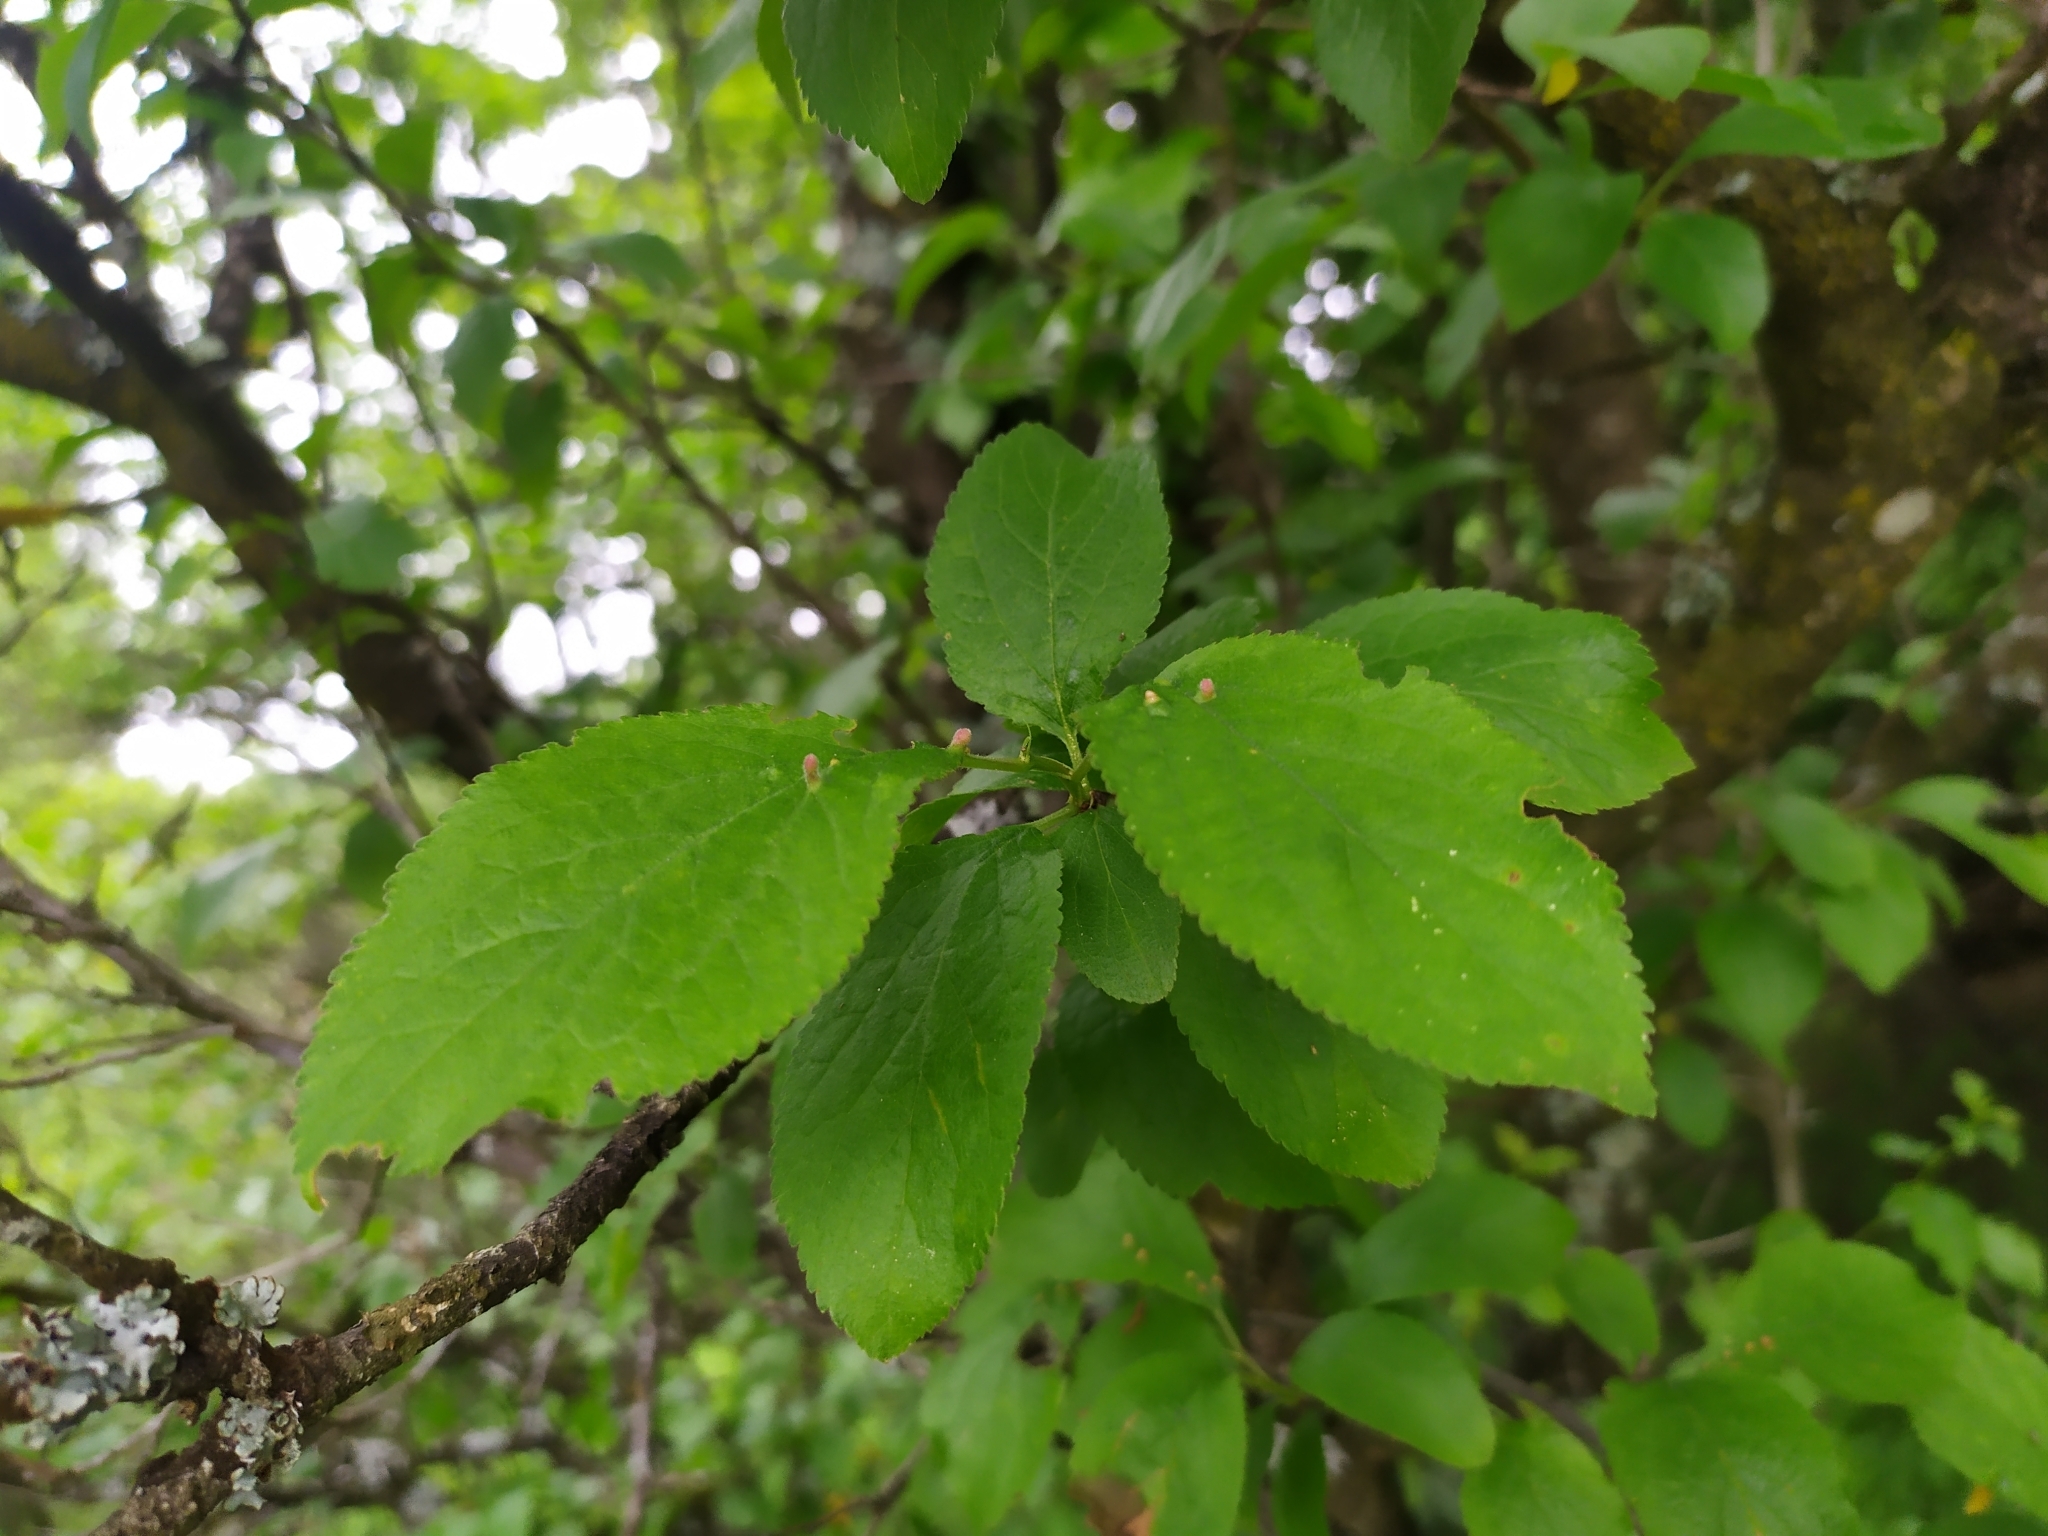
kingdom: Animalia
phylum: Arthropoda
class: Arachnida
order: Trombidiformes
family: Eriophyidae
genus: Phyllocoptes
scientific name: Phyllocoptes eupadi
